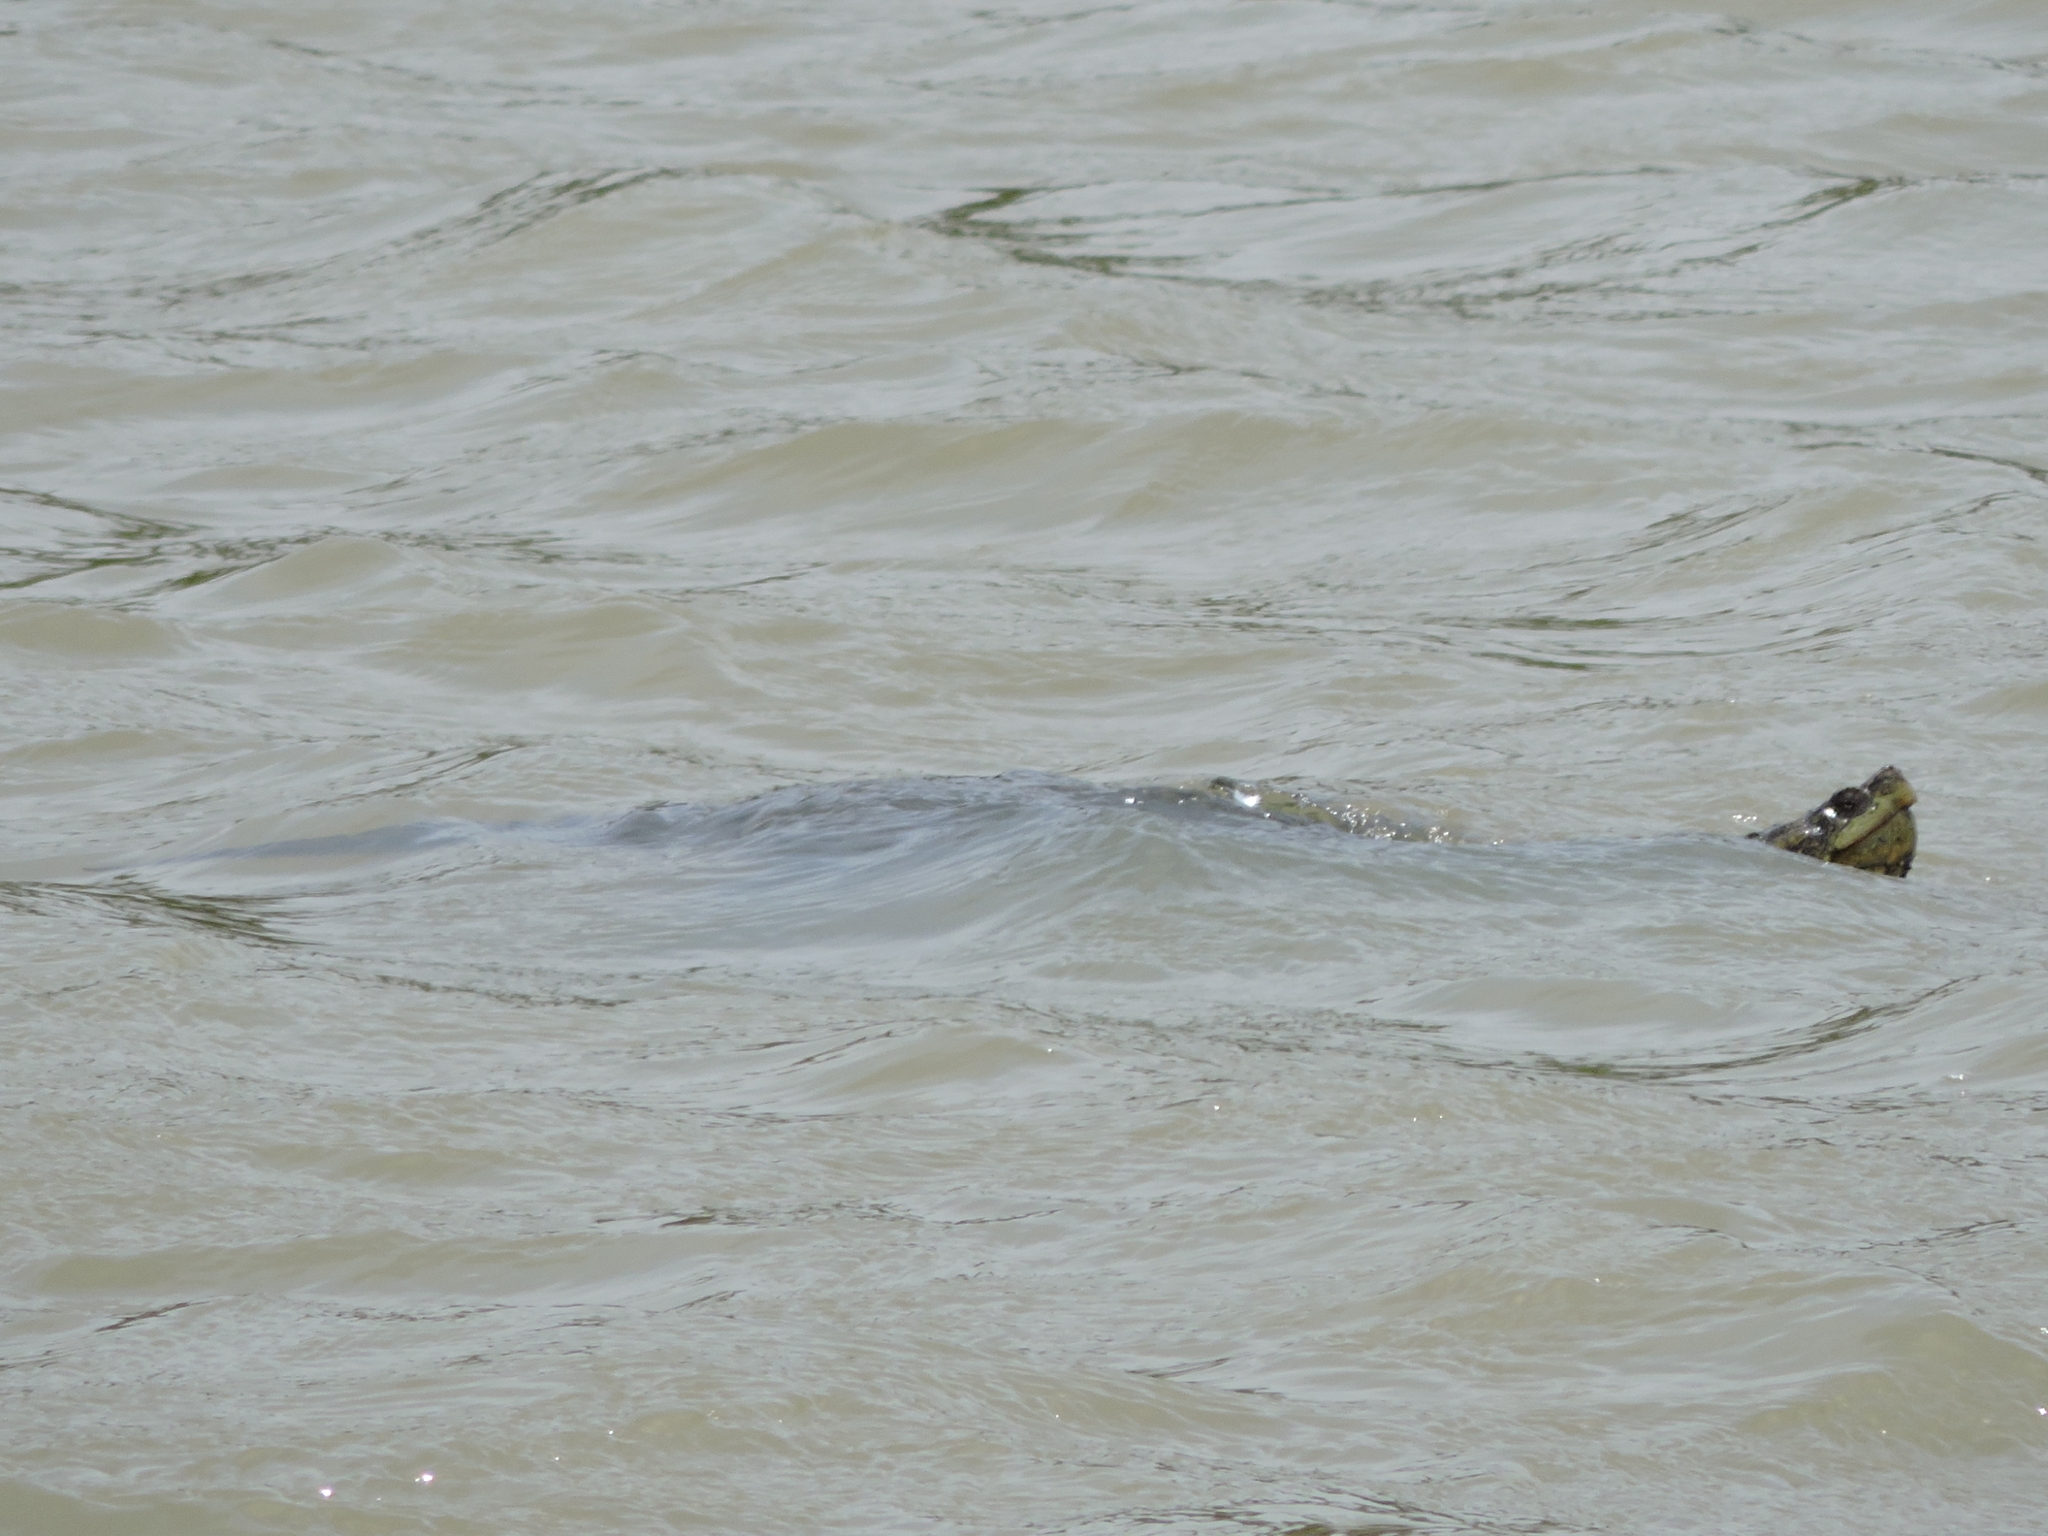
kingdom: Animalia
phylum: Chordata
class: Testudines
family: Chelydridae
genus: Chelydra
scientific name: Chelydra serpentina
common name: Common snapping turtle
